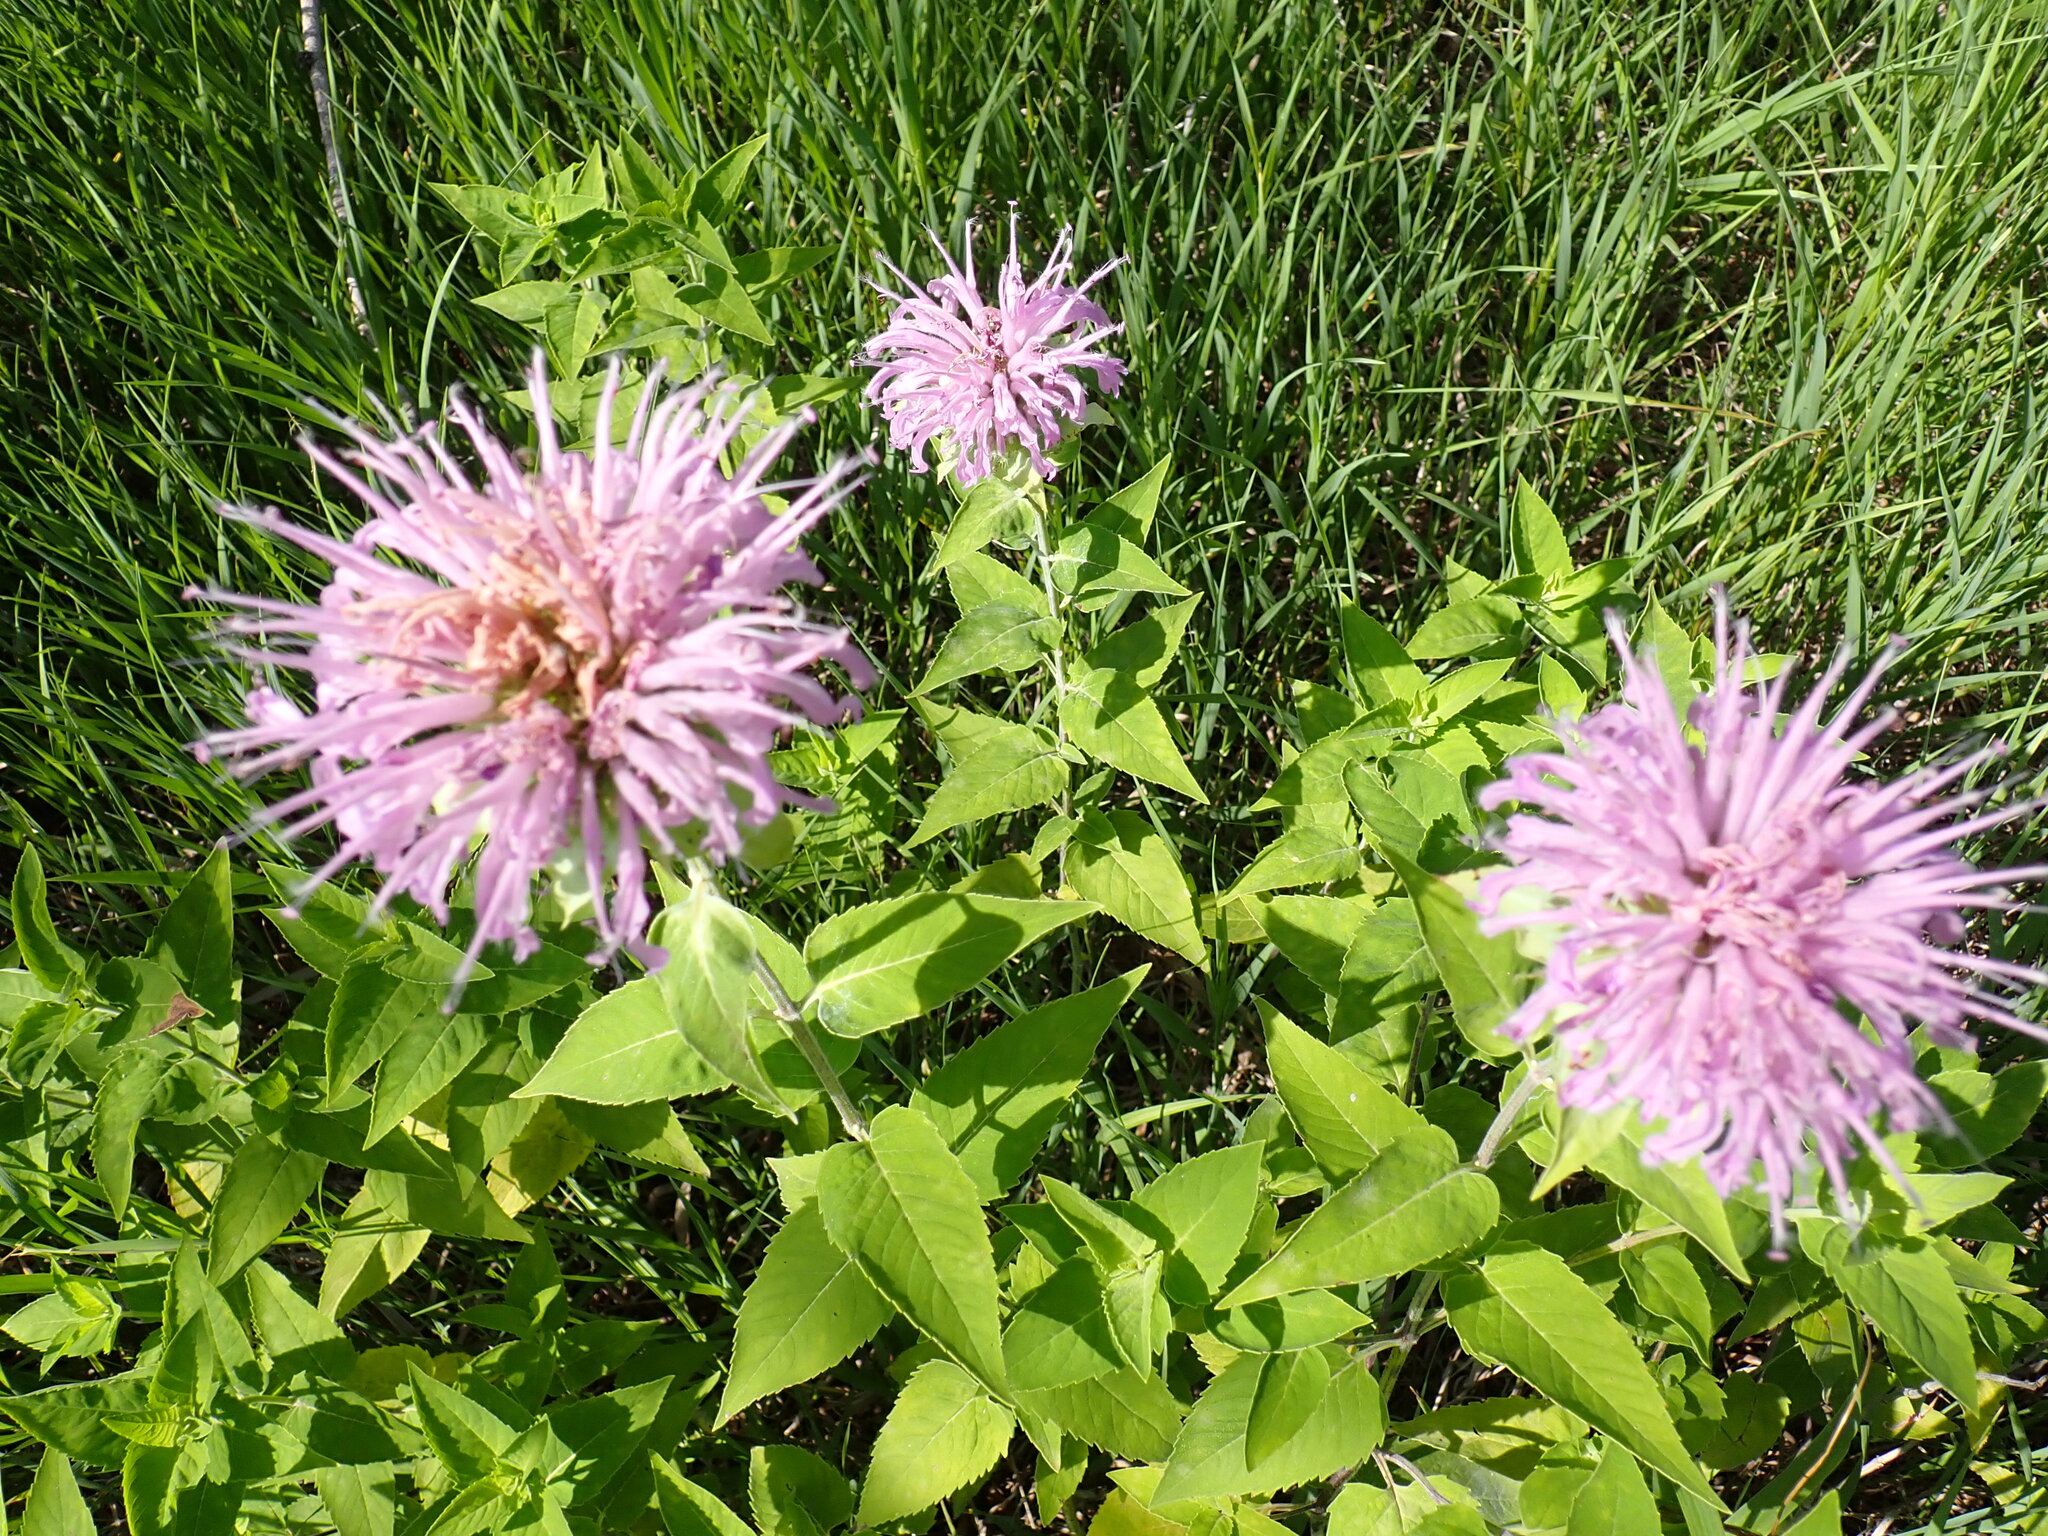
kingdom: Plantae
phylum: Tracheophyta
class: Magnoliopsida
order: Lamiales
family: Lamiaceae
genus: Monarda
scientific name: Monarda fistulosa
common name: Purple beebalm
